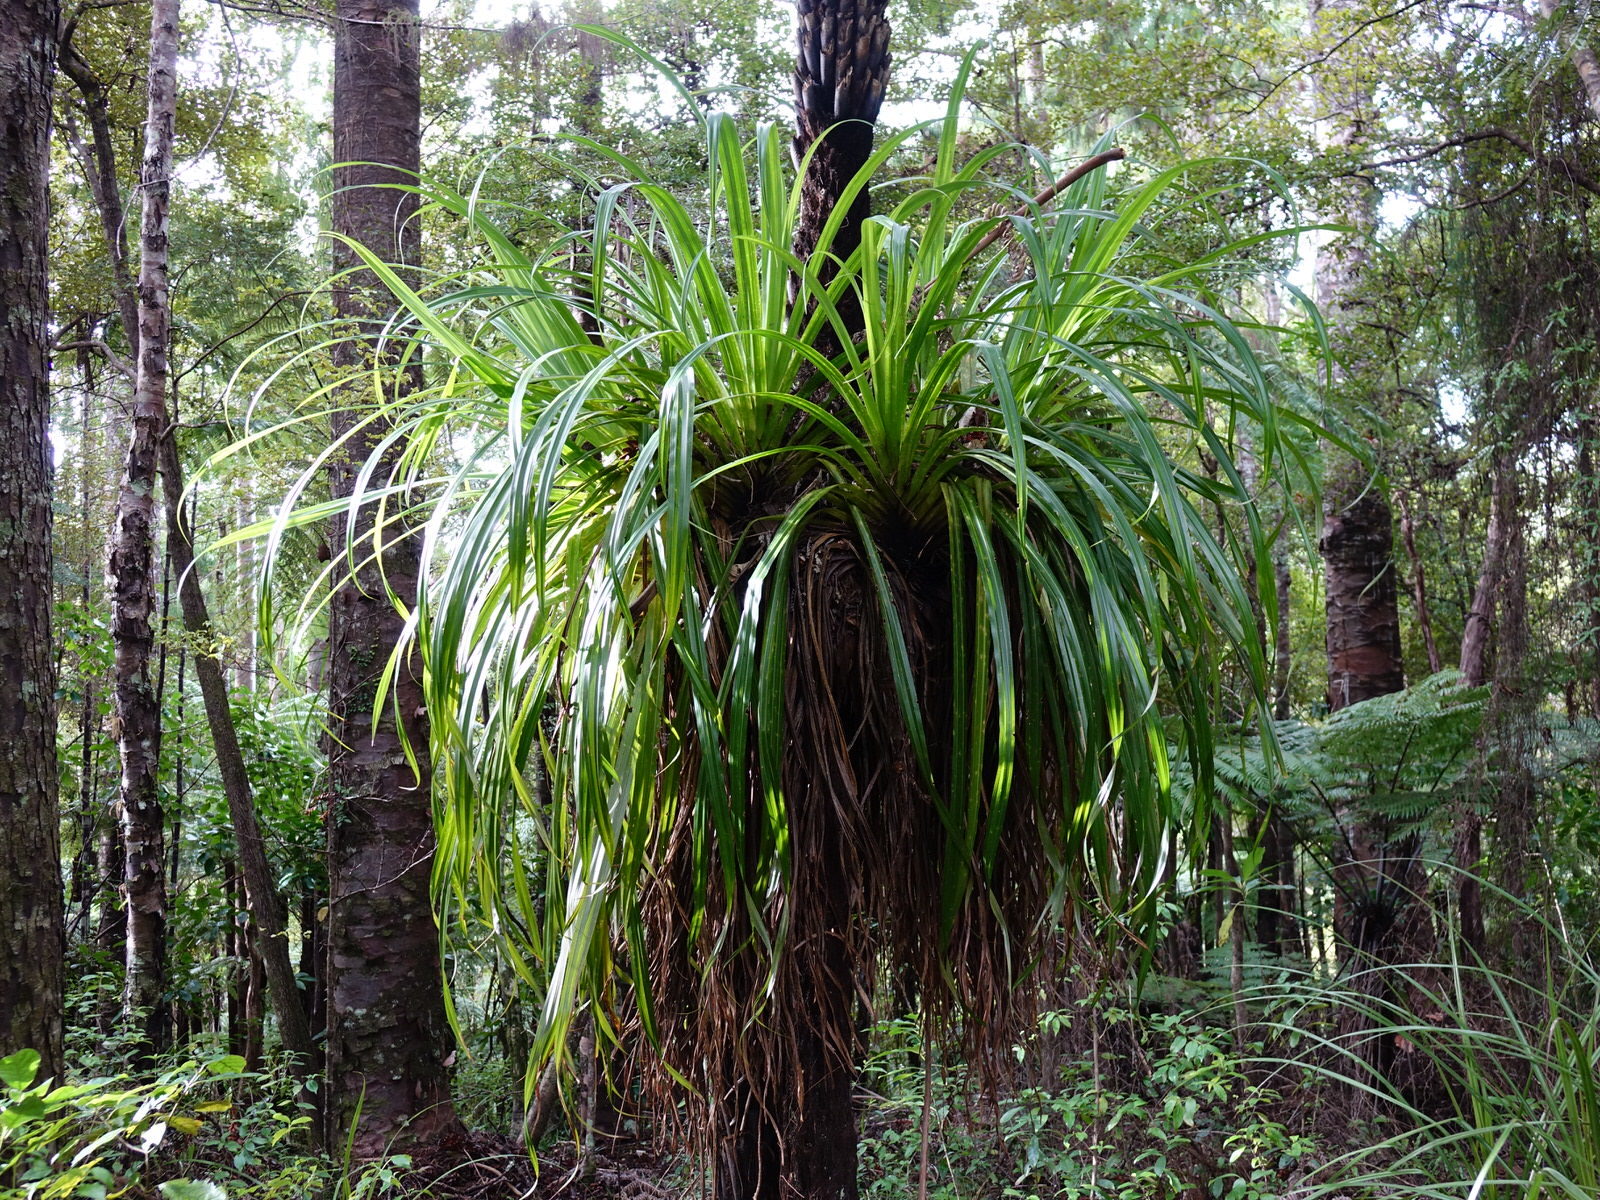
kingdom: Plantae
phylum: Tracheophyta
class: Liliopsida
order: Asparagales
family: Asteliaceae
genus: Astelia
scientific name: Astelia hastata
